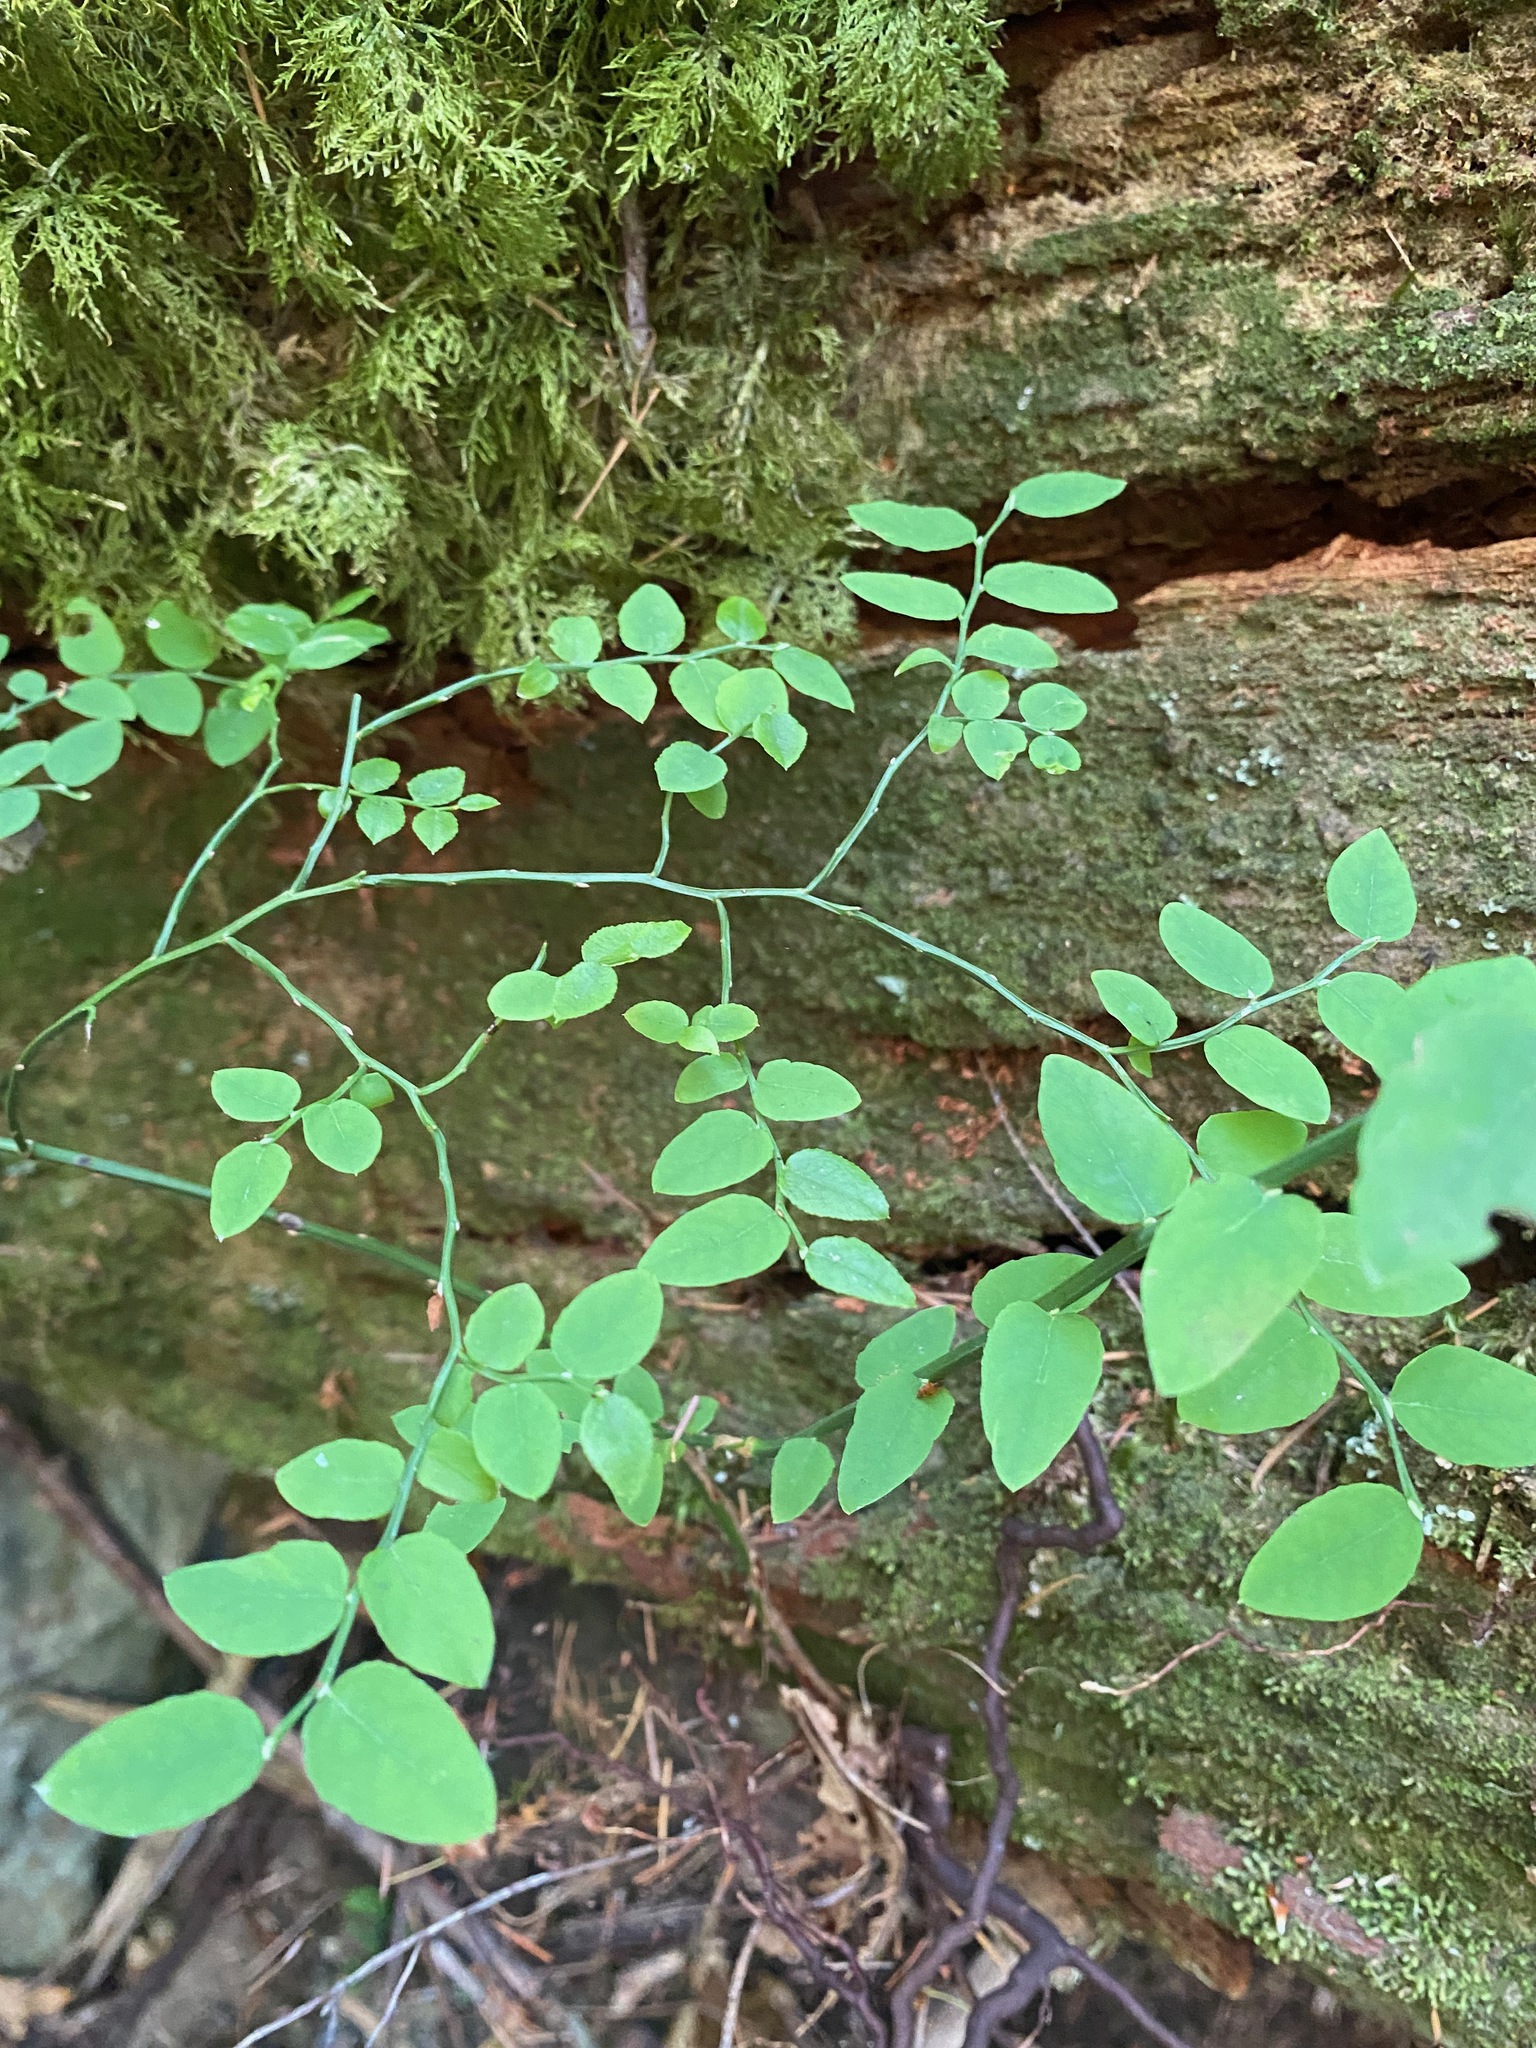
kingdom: Plantae
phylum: Tracheophyta
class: Magnoliopsida
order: Ericales
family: Ericaceae
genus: Vaccinium
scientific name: Vaccinium parvifolium
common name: Red-huckleberry
